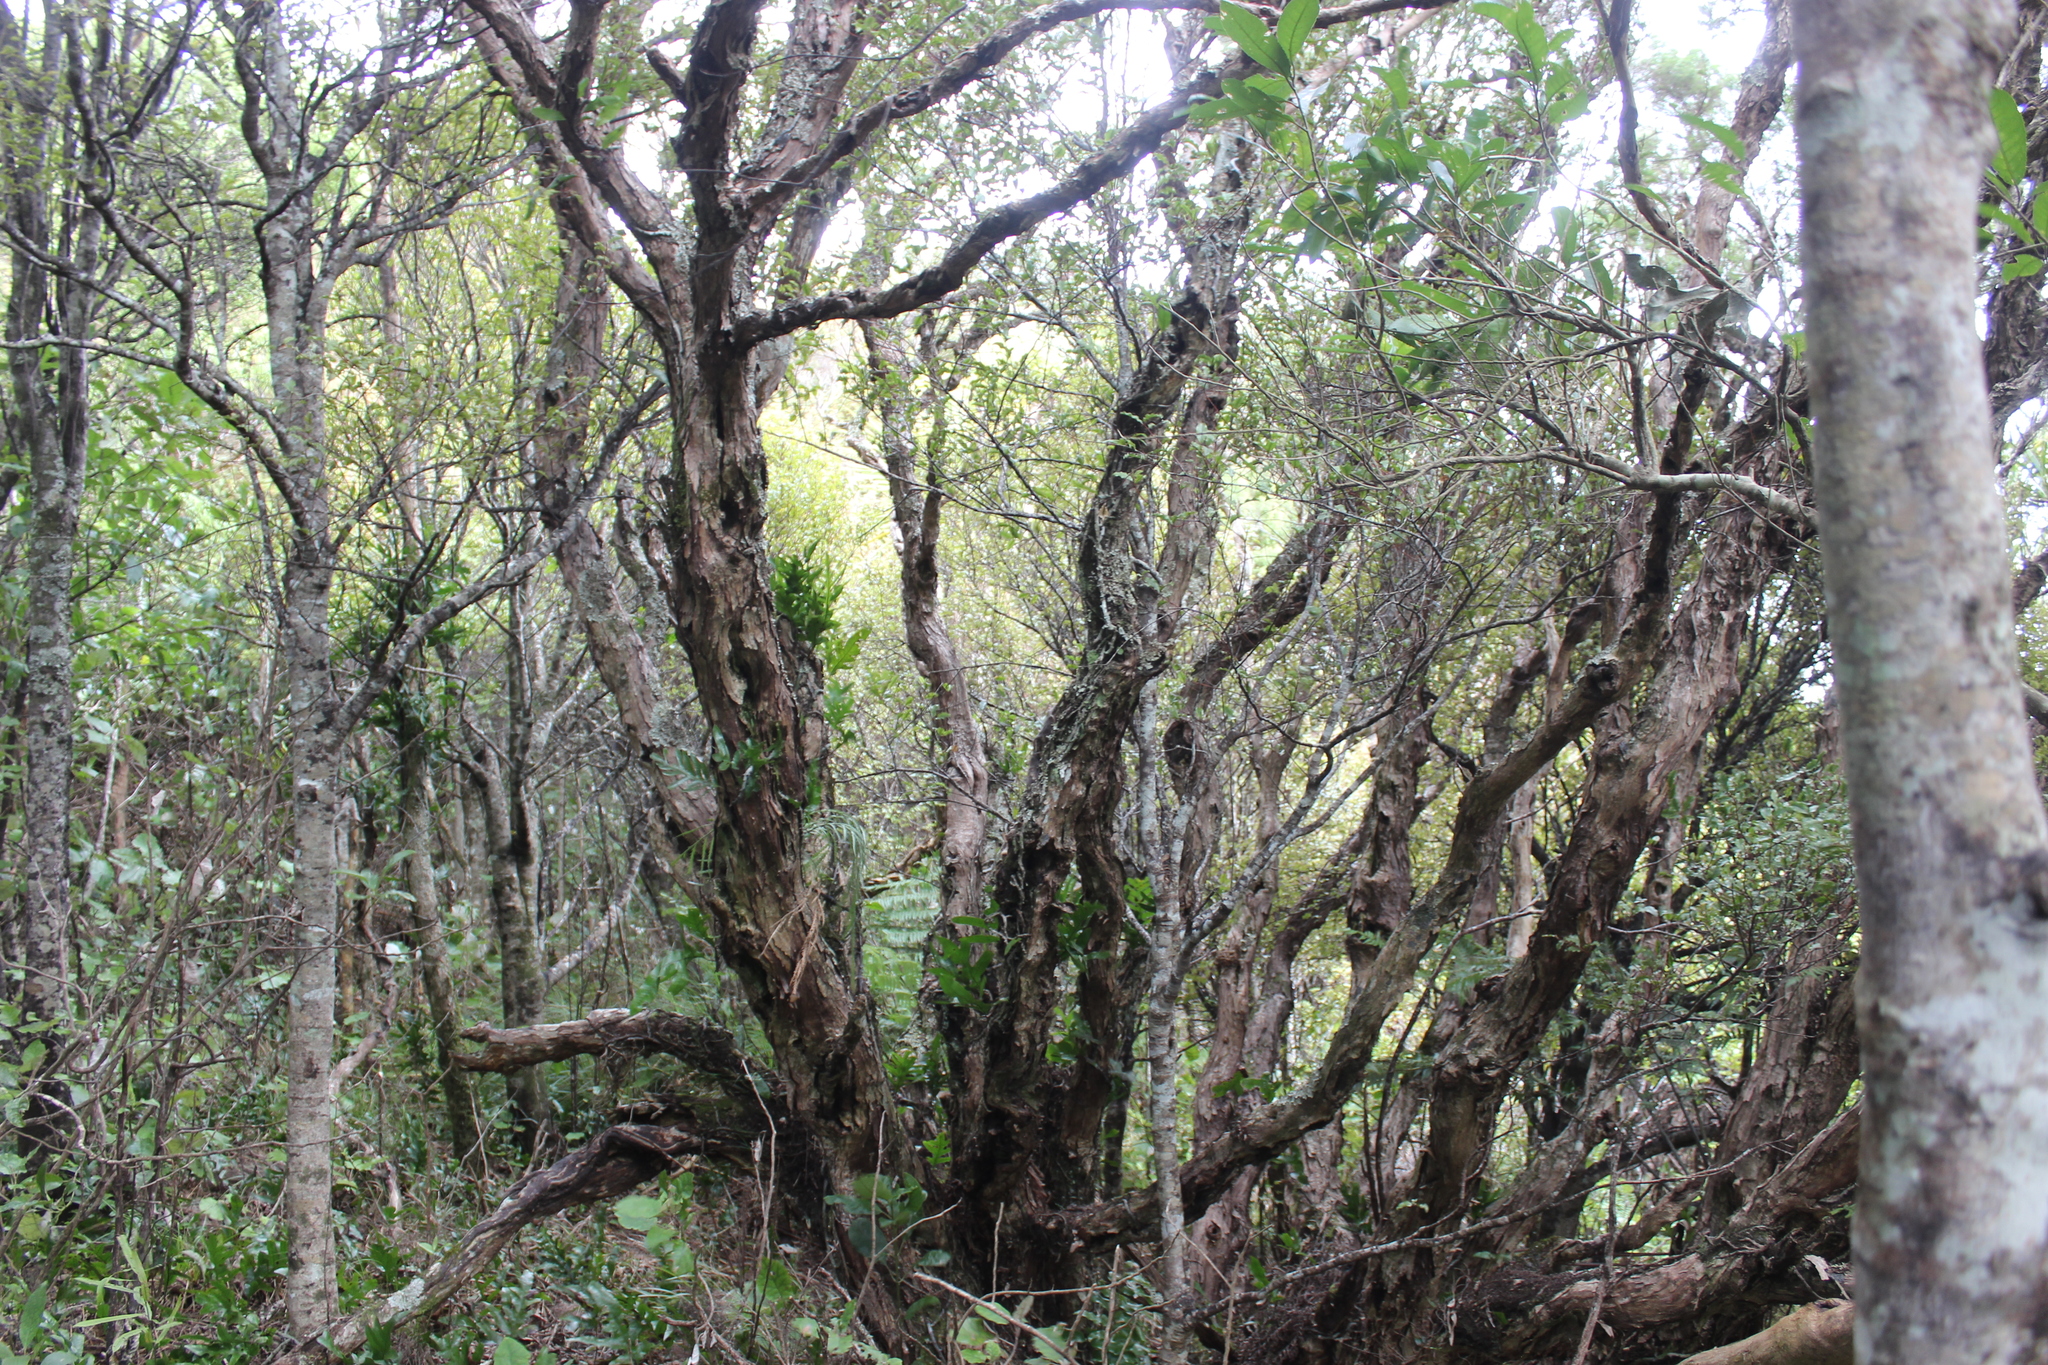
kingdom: Plantae
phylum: Tracheophyta
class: Magnoliopsida
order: Myrtales
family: Myrtaceae
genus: Leptospermum
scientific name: Leptospermum scoparium
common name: Broom tea-tree
